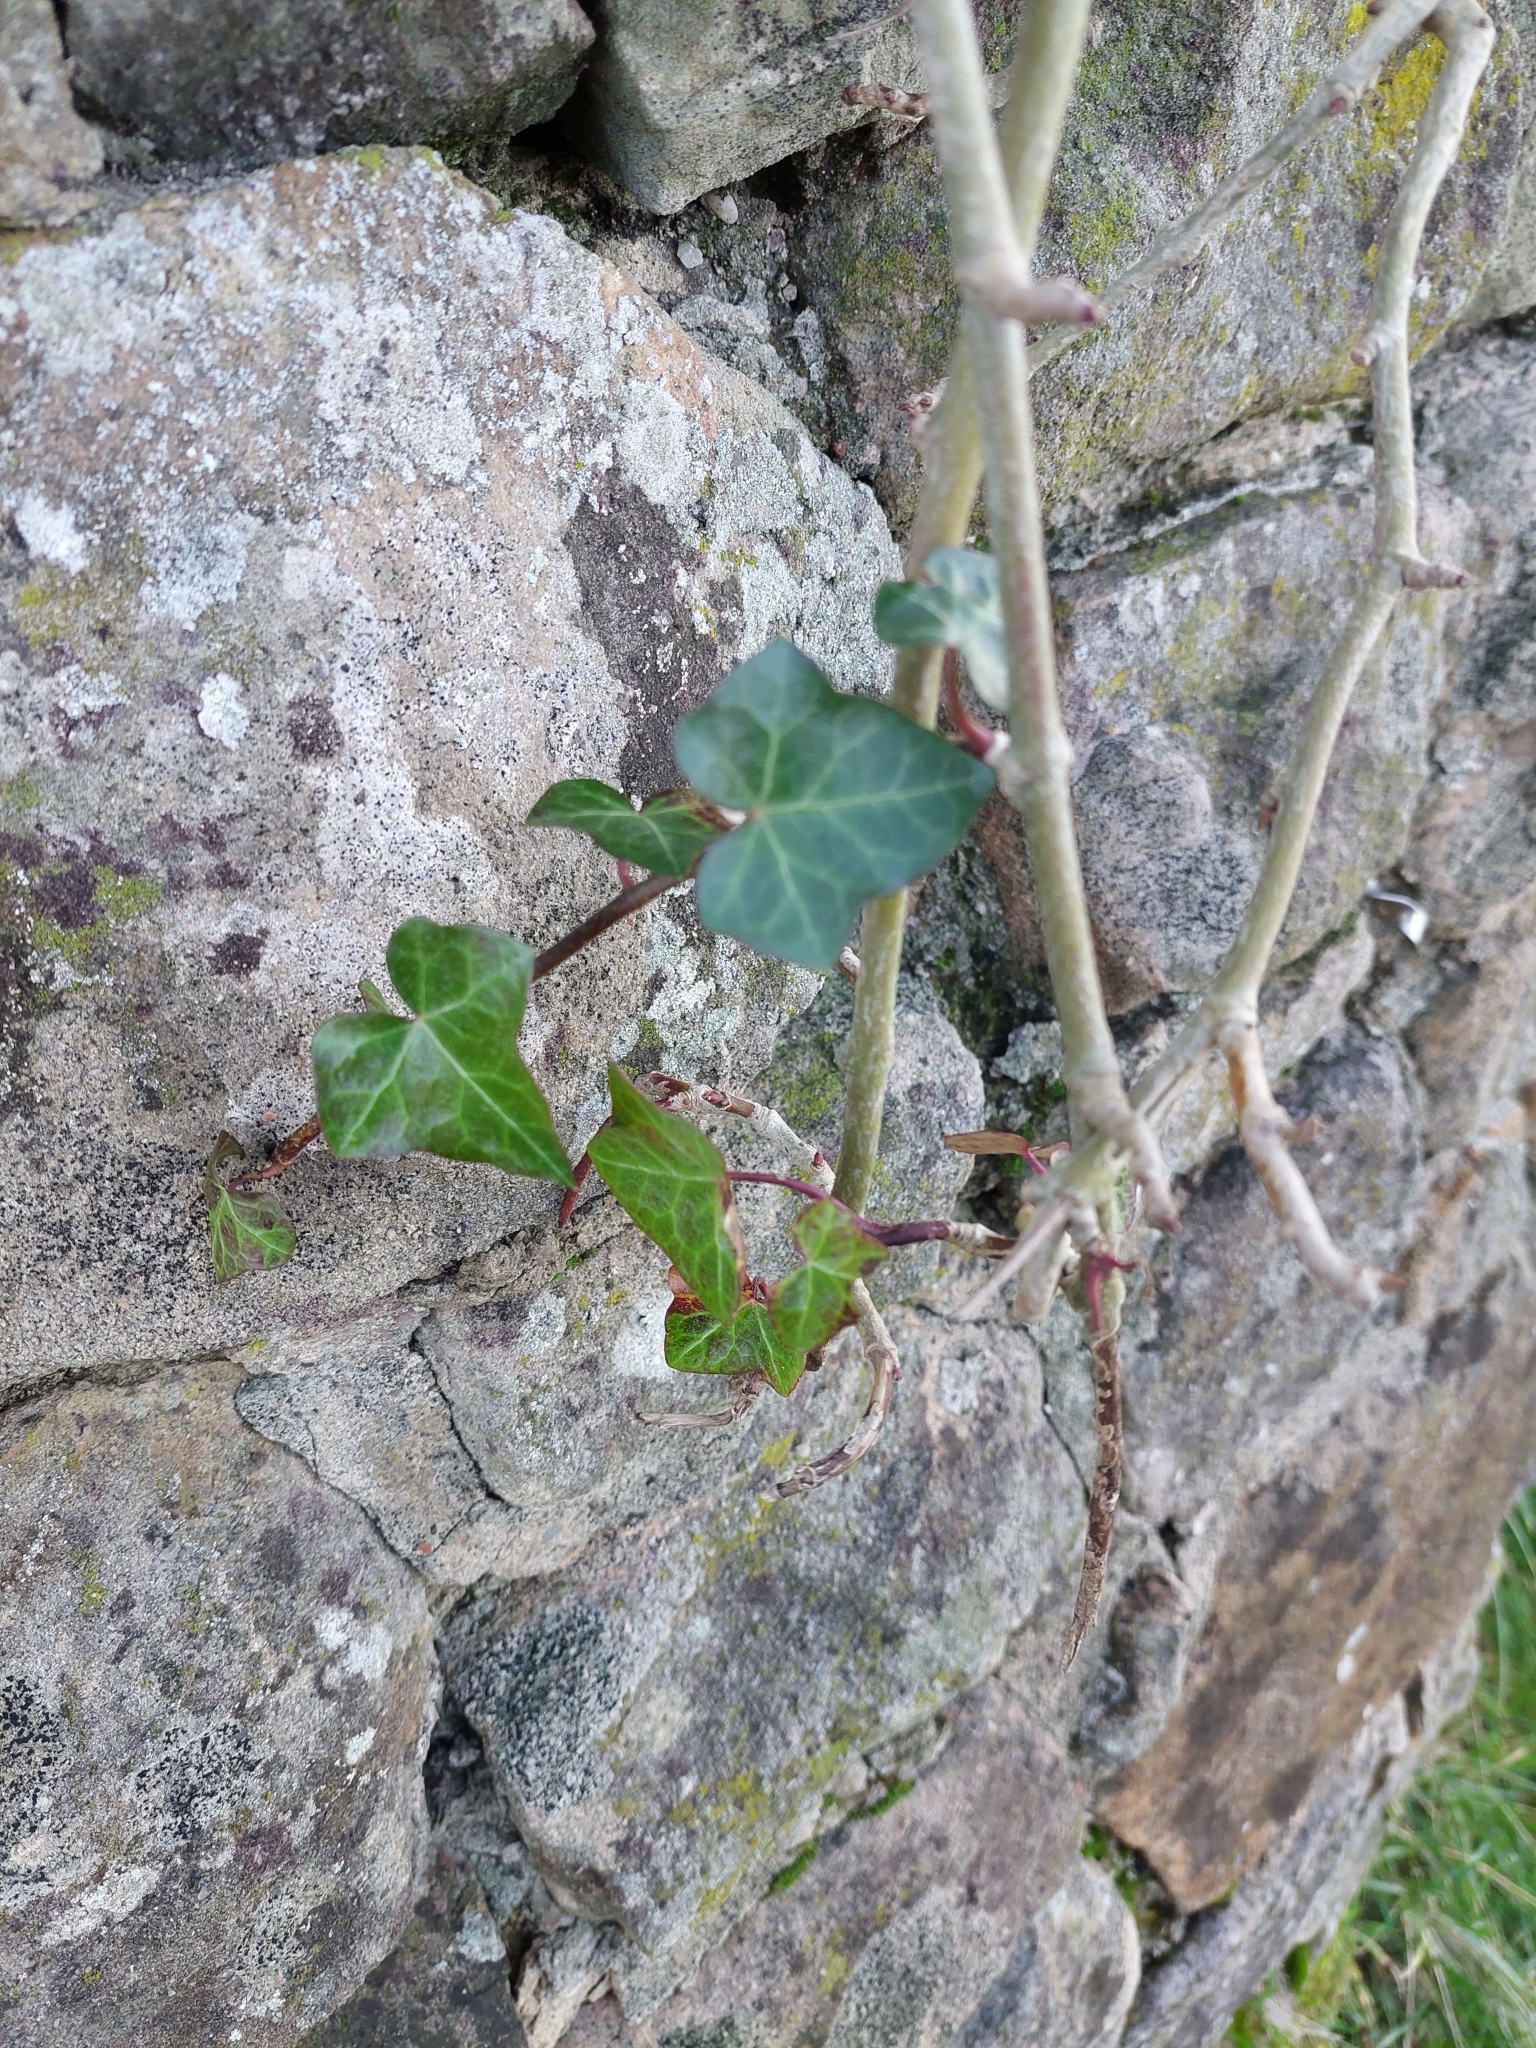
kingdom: Plantae
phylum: Tracheophyta
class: Magnoliopsida
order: Apiales
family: Araliaceae
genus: Hedera
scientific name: Hedera helix
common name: Ivy
